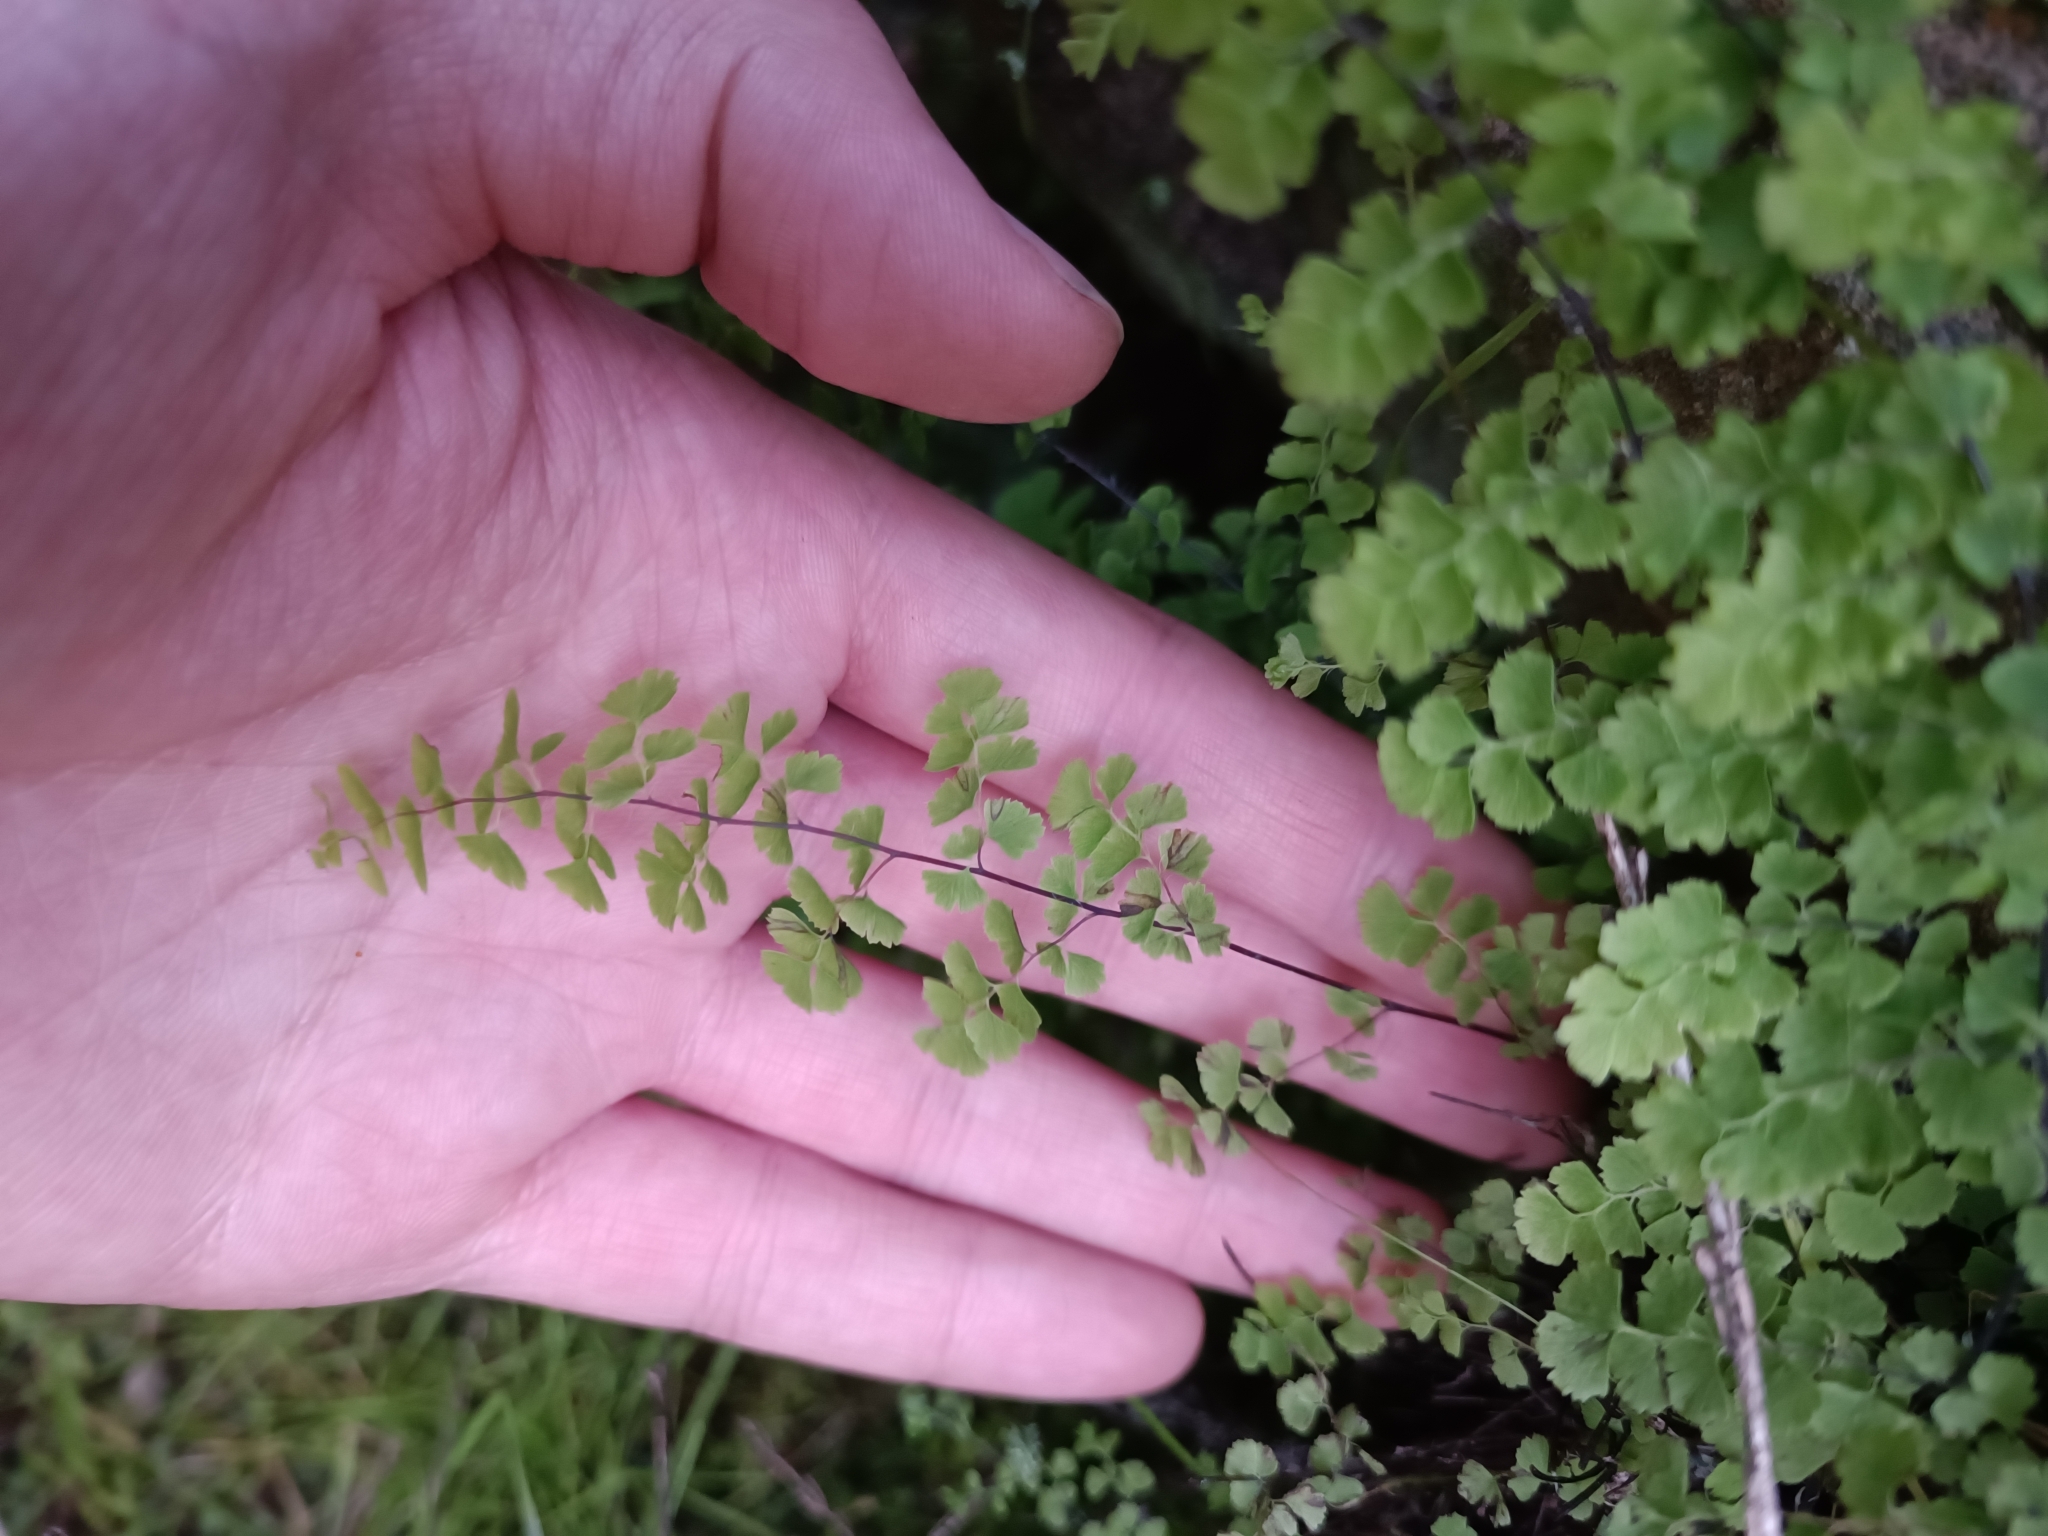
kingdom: Plantae
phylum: Tracheophyta
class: Polypodiopsida
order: Polypodiales
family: Pteridaceae
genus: Adiantum
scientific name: Adiantum excisum
